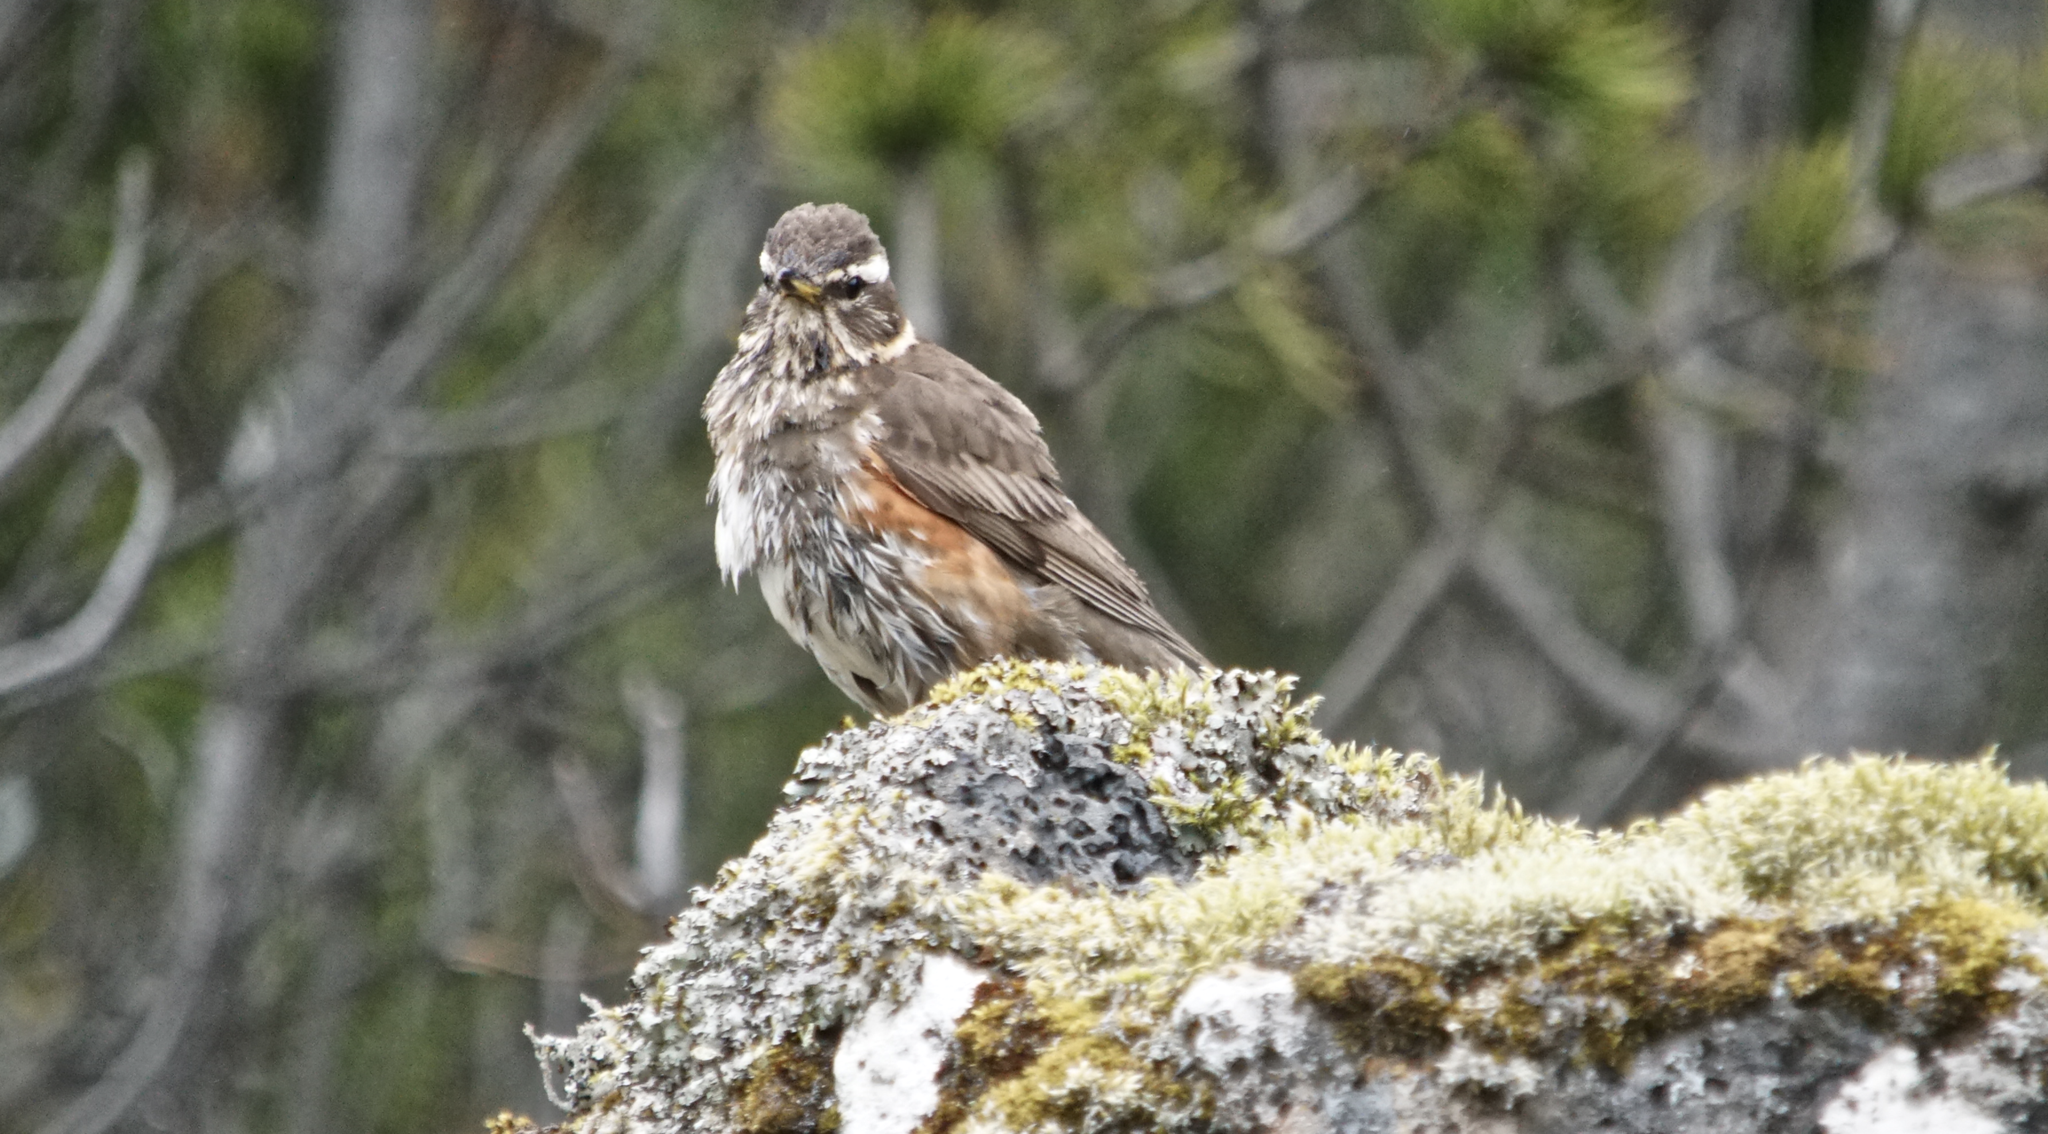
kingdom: Animalia
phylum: Chordata
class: Aves
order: Passeriformes
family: Turdidae
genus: Turdus
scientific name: Turdus iliacus
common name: Redwing
